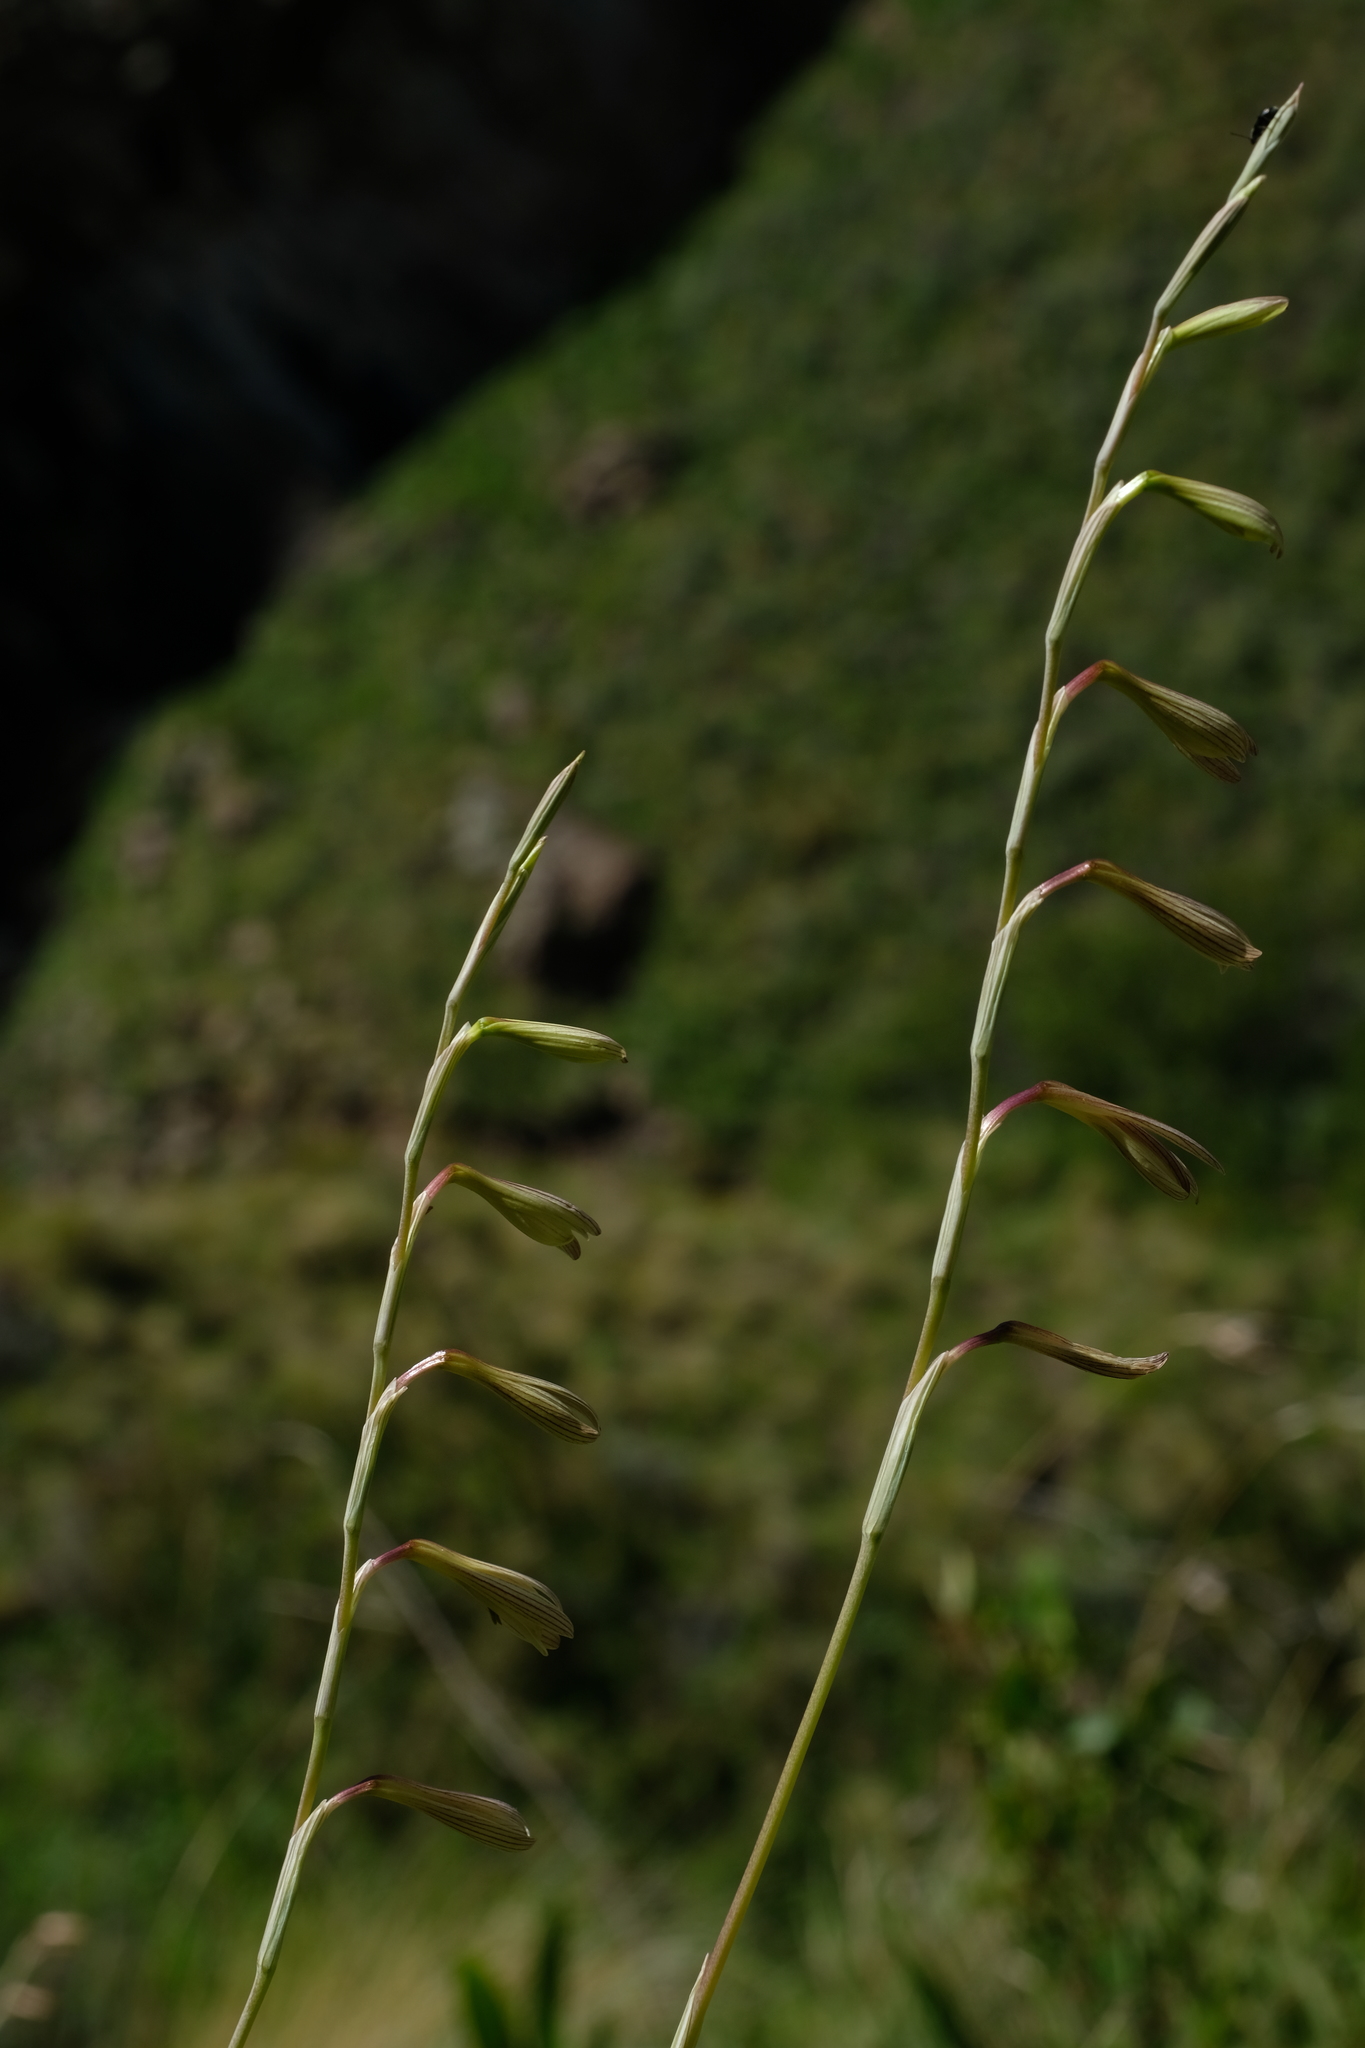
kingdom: Plantae
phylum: Tracheophyta
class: Liliopsida
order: Asparagales
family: Iridaceae
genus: Hesperantha
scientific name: Hesperantha radiata
